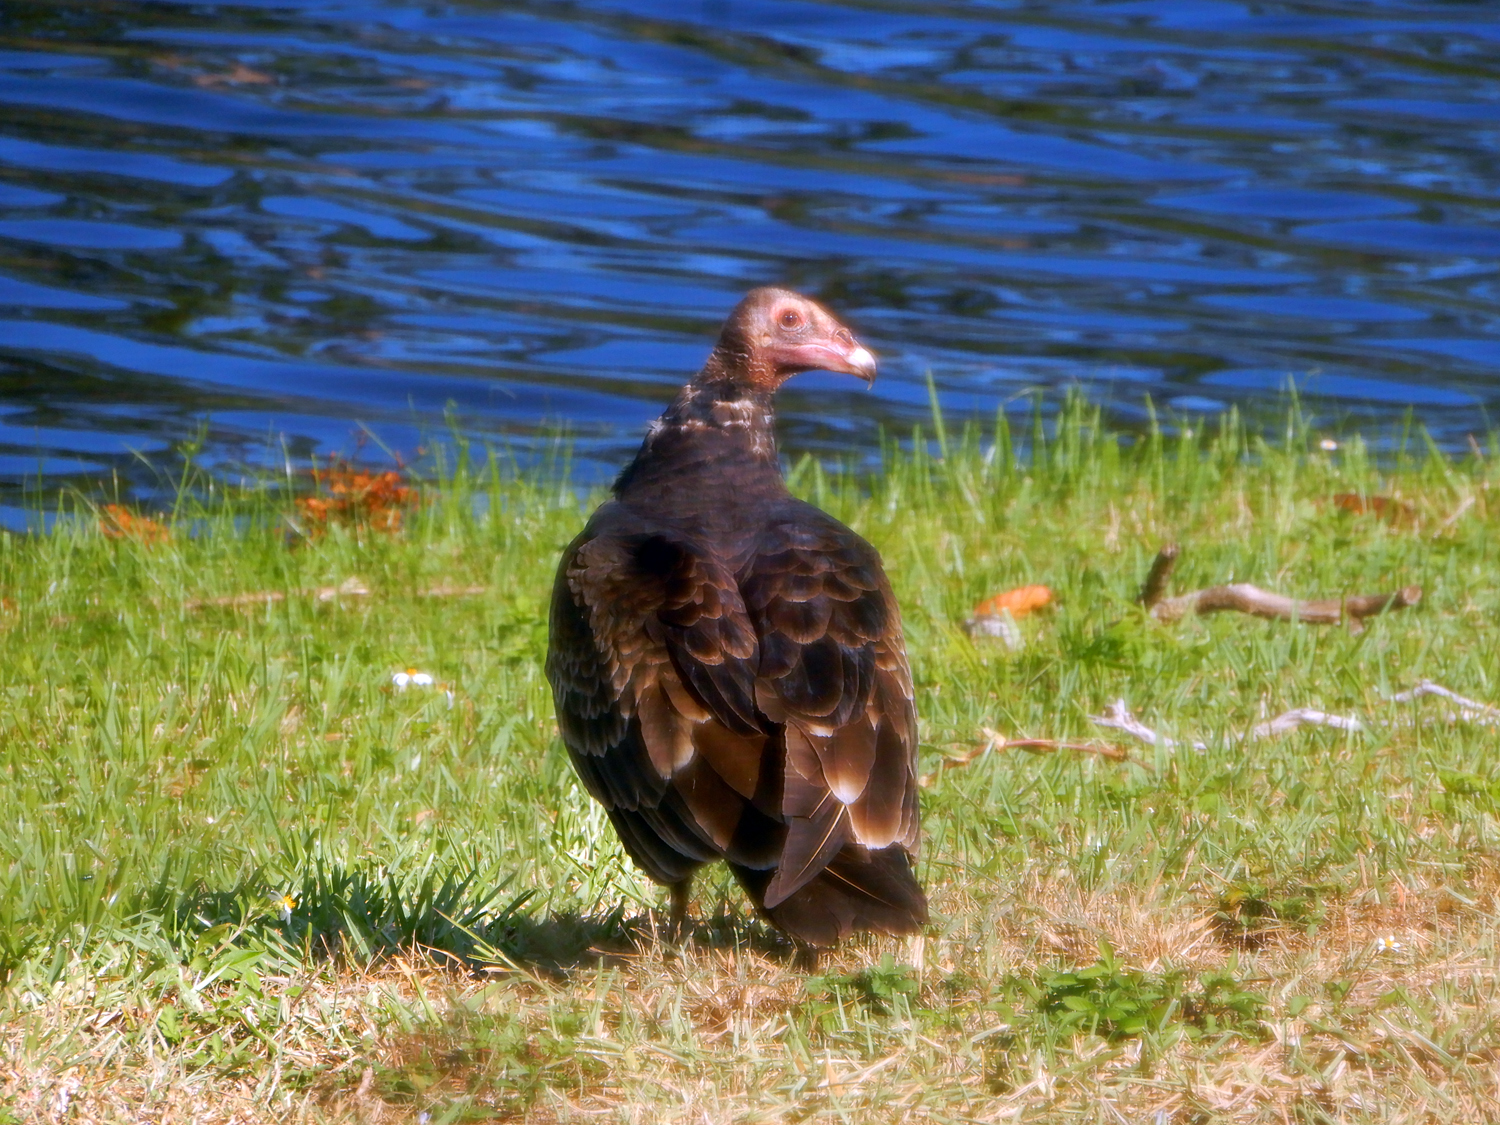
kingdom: Animalia
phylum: Chordata
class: Aves
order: Accipitriformes
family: Cathartidae
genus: Cathartes
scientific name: Cathartes aura
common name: Turkey vulture
